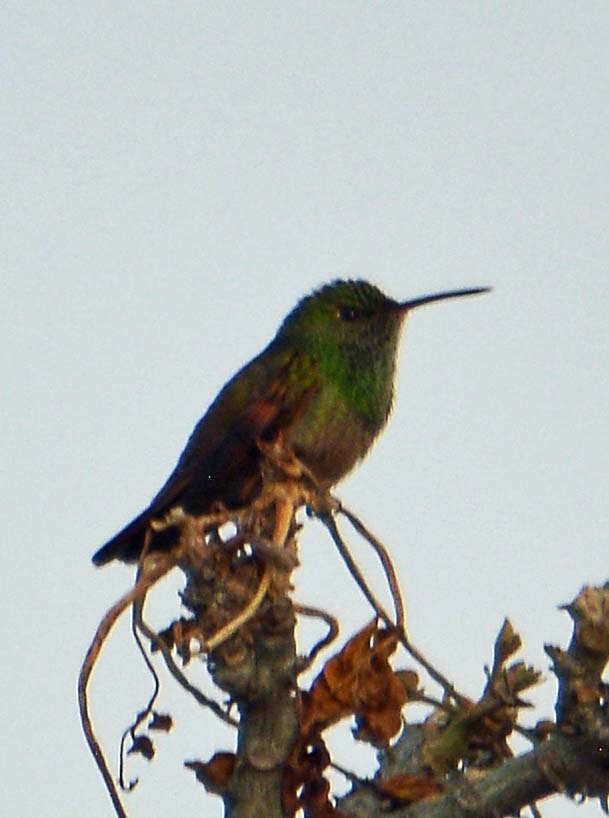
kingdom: Animalia
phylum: Chordata
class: Aves
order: Apodiformes
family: Trochilidae
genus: Saucerottia
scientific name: Saucerottia beryllina
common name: Berylline hummingbird
